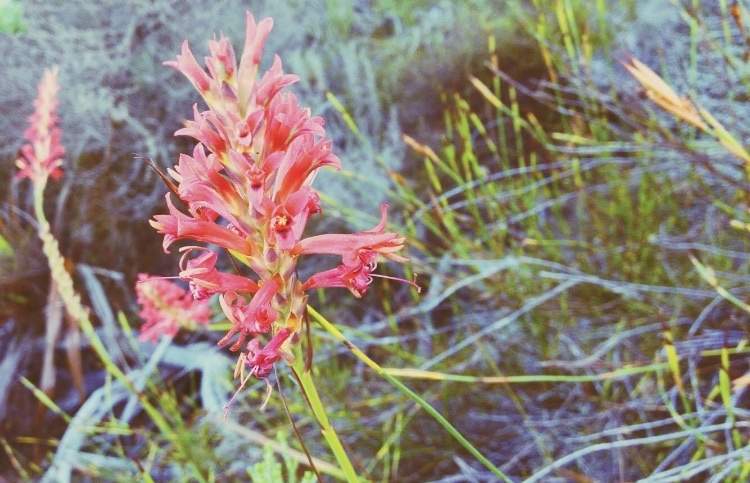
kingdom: Plantae
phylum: Tracheophyta
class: Liliopsida
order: Asparagales
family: Iridaceae
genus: Tritoniopsis
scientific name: Tritoniopsis triticea
